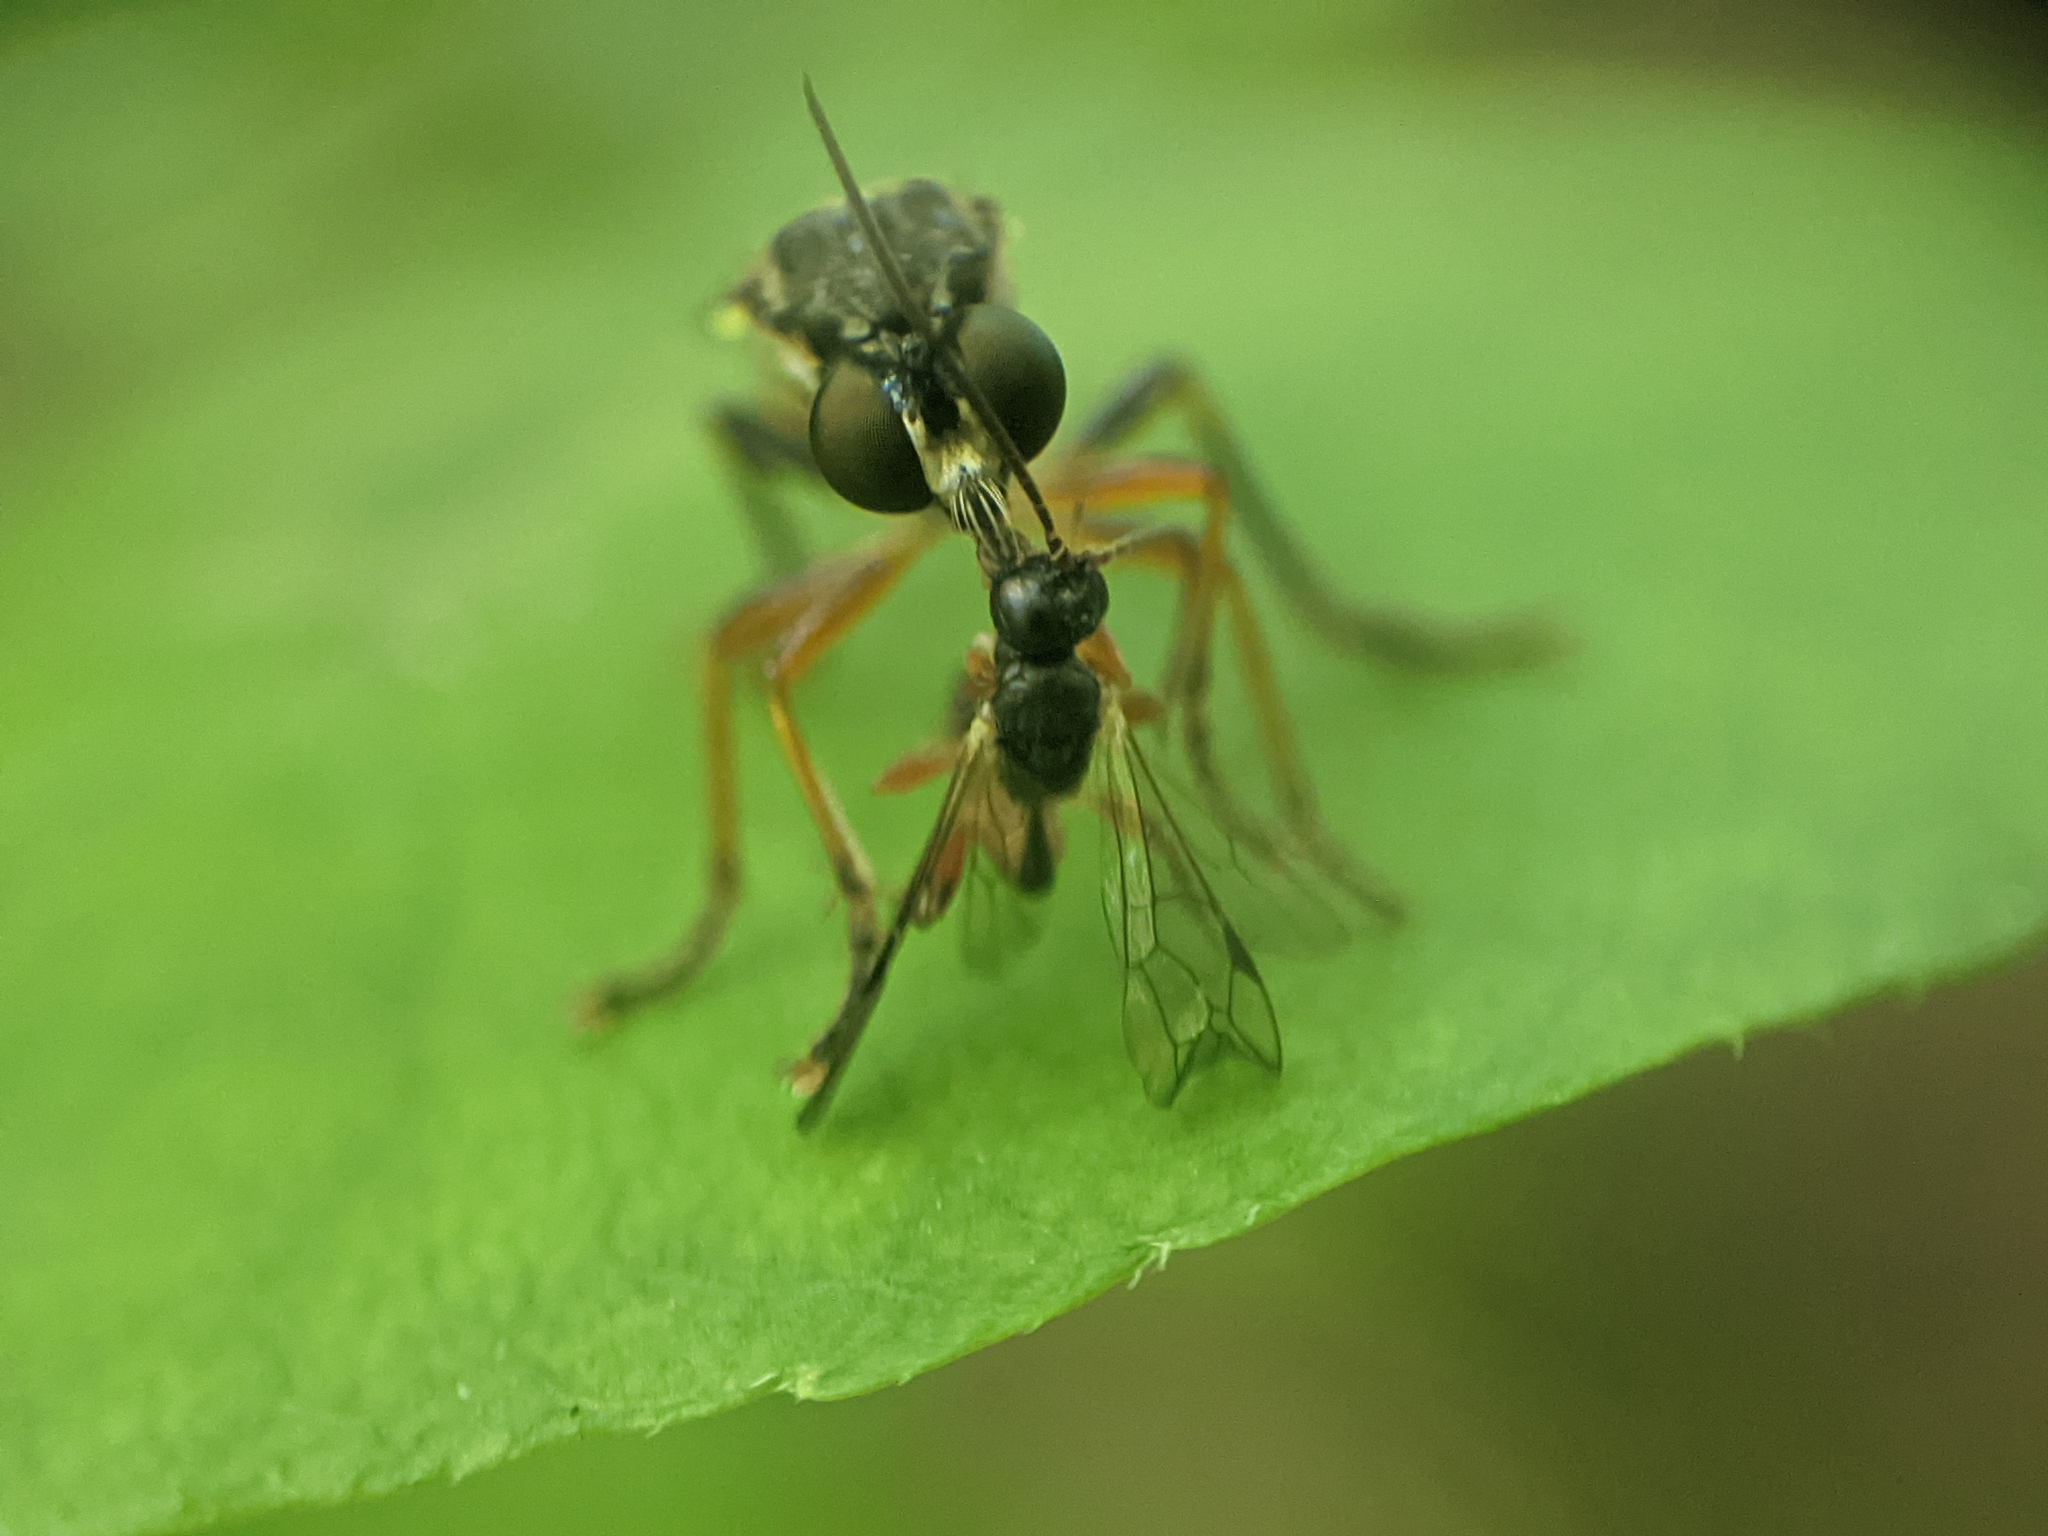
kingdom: Animalia
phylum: Arthropoda
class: Insecta
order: Diptera
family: Asilidae
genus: Dioctria
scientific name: Dioctria hyalipennis
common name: Stripe-legged robberfly
